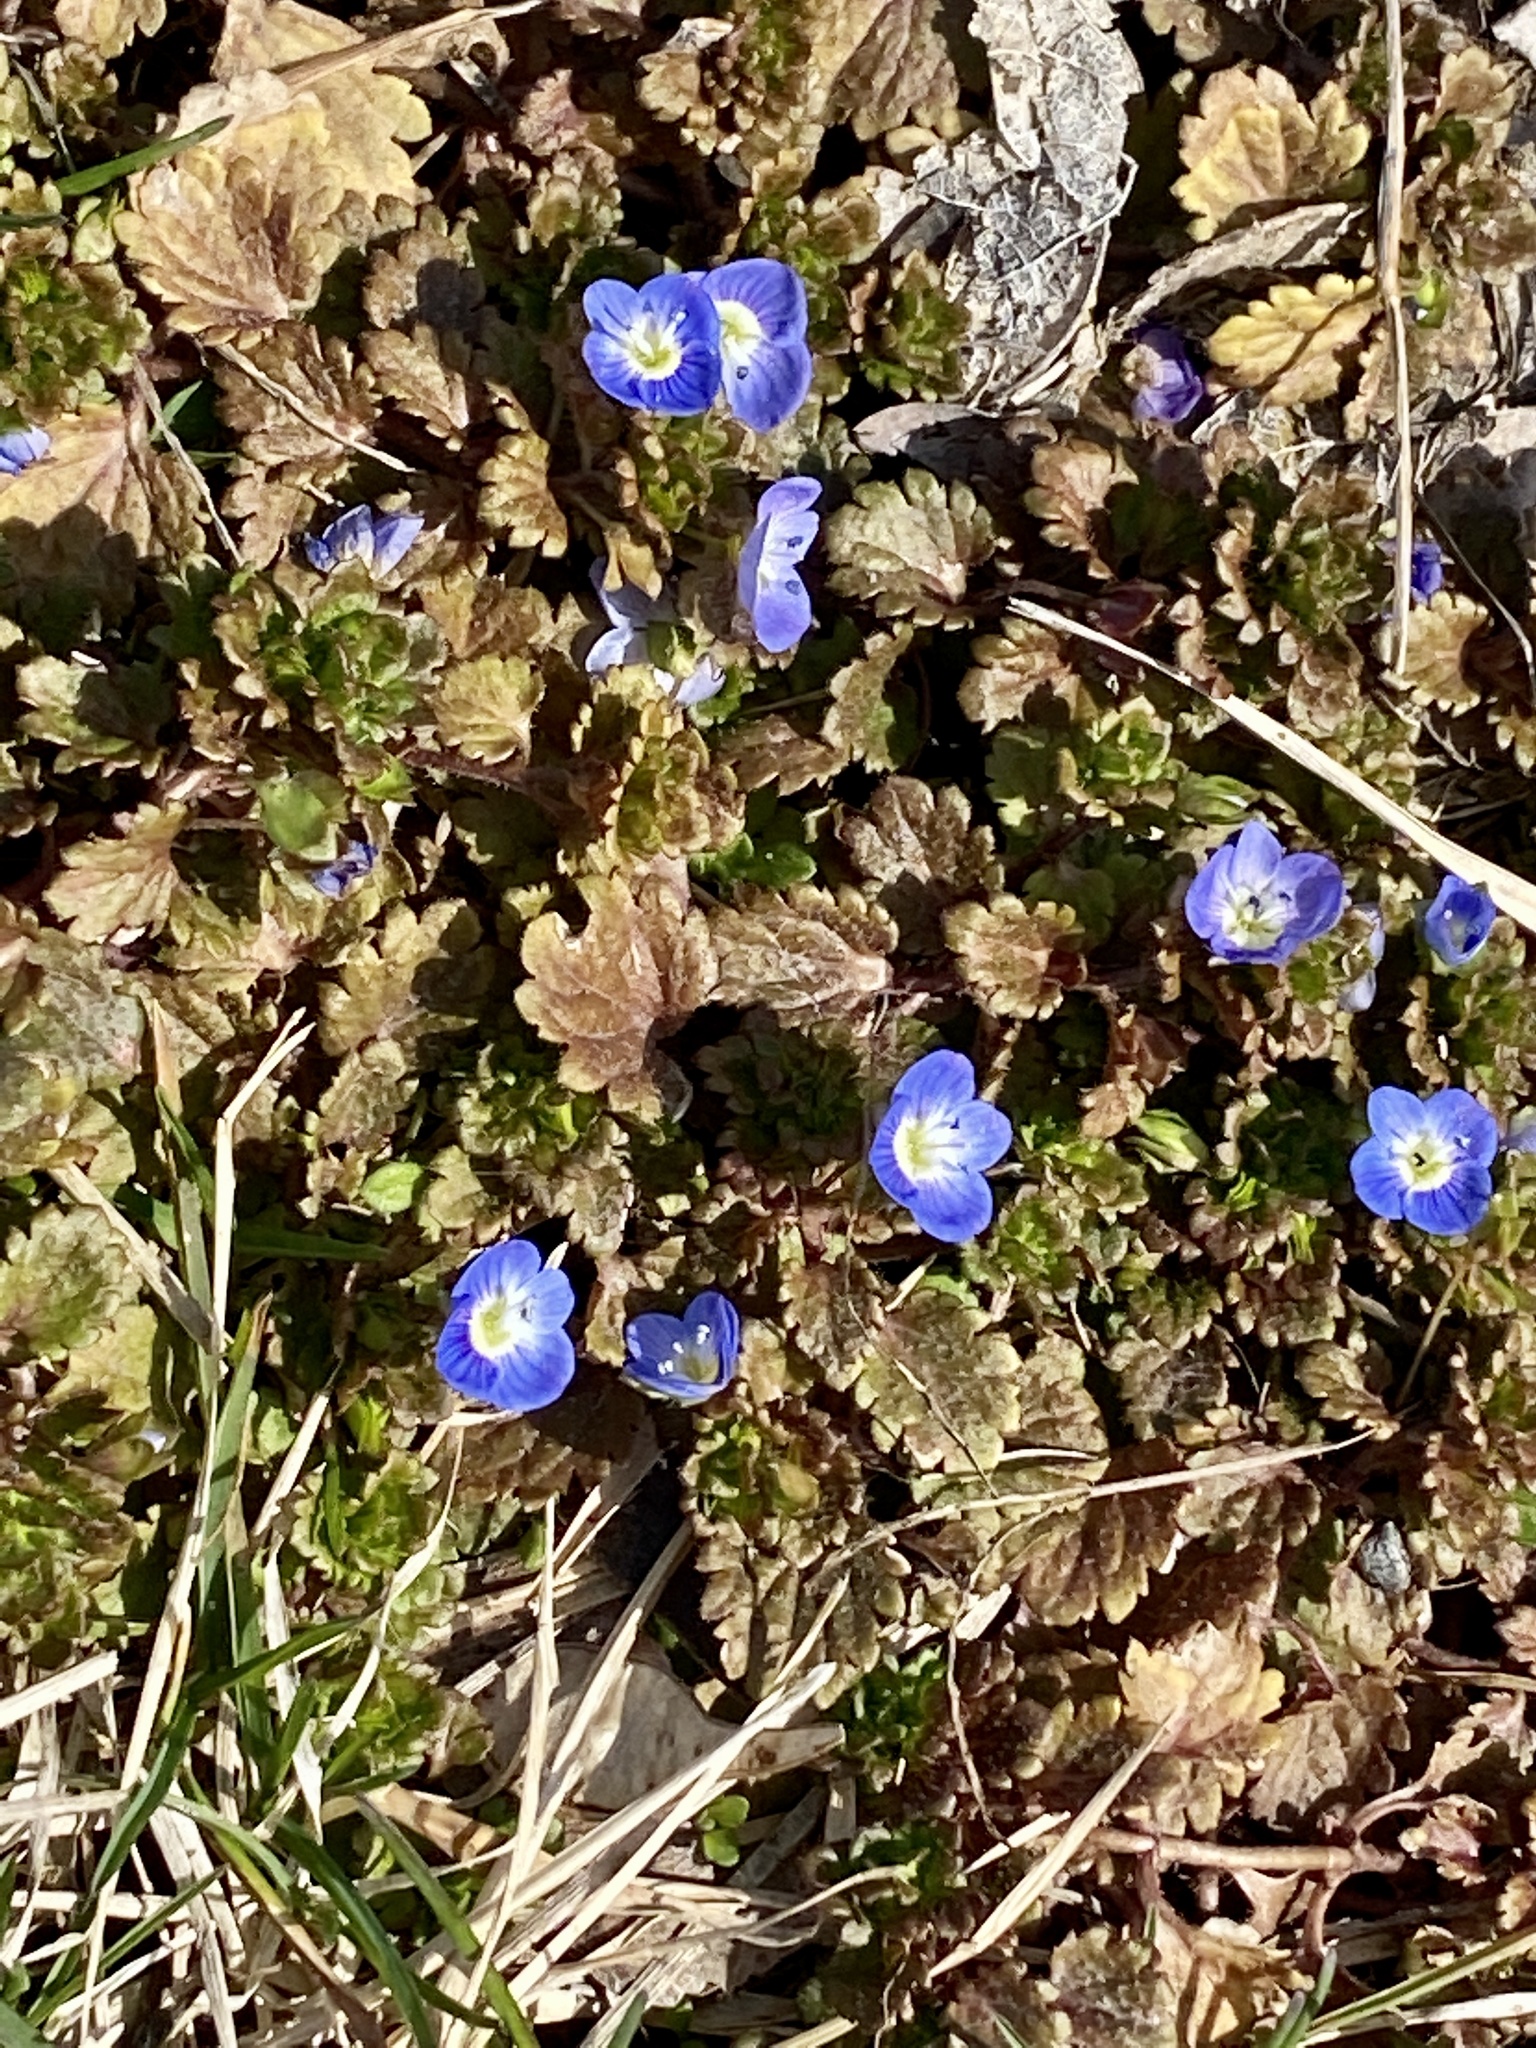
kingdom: Plantae
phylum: Tracheophyta
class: Magnoliopsida
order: Lamiales
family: Plantaginaceae
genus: Veronica
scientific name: Veronica persica
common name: Common field-speedwell
